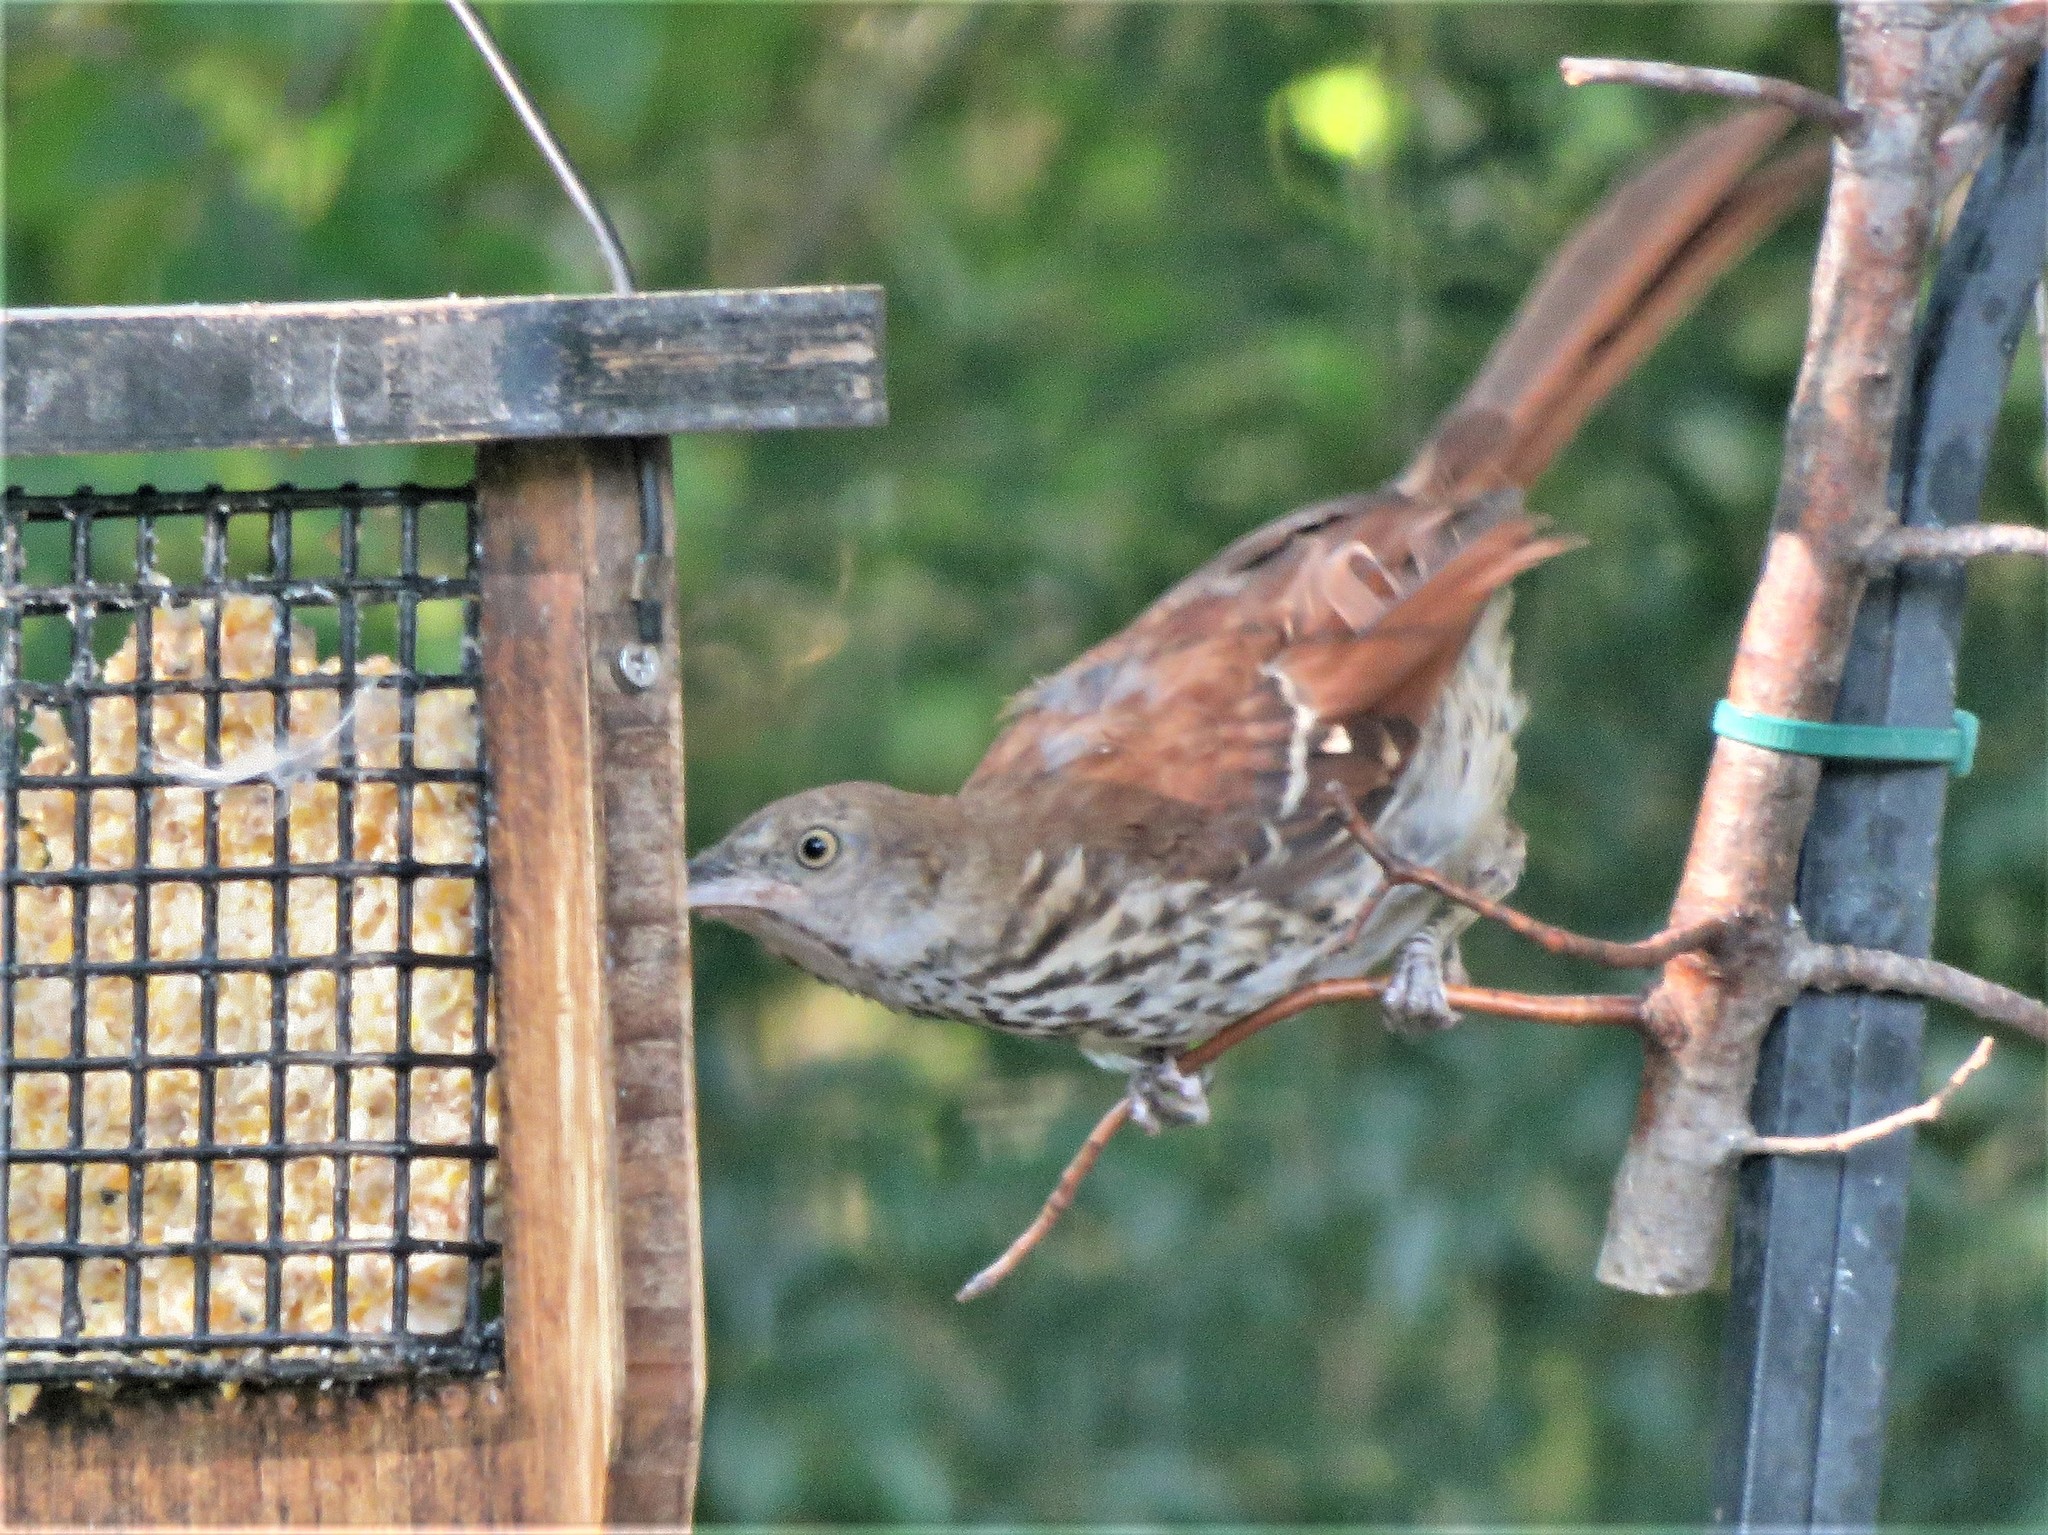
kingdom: Animalia
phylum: Chordata
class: Aves
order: Passeriformes
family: Mimidae
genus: Toxostoma
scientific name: Toxostoma rufum
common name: Brown thrasher
